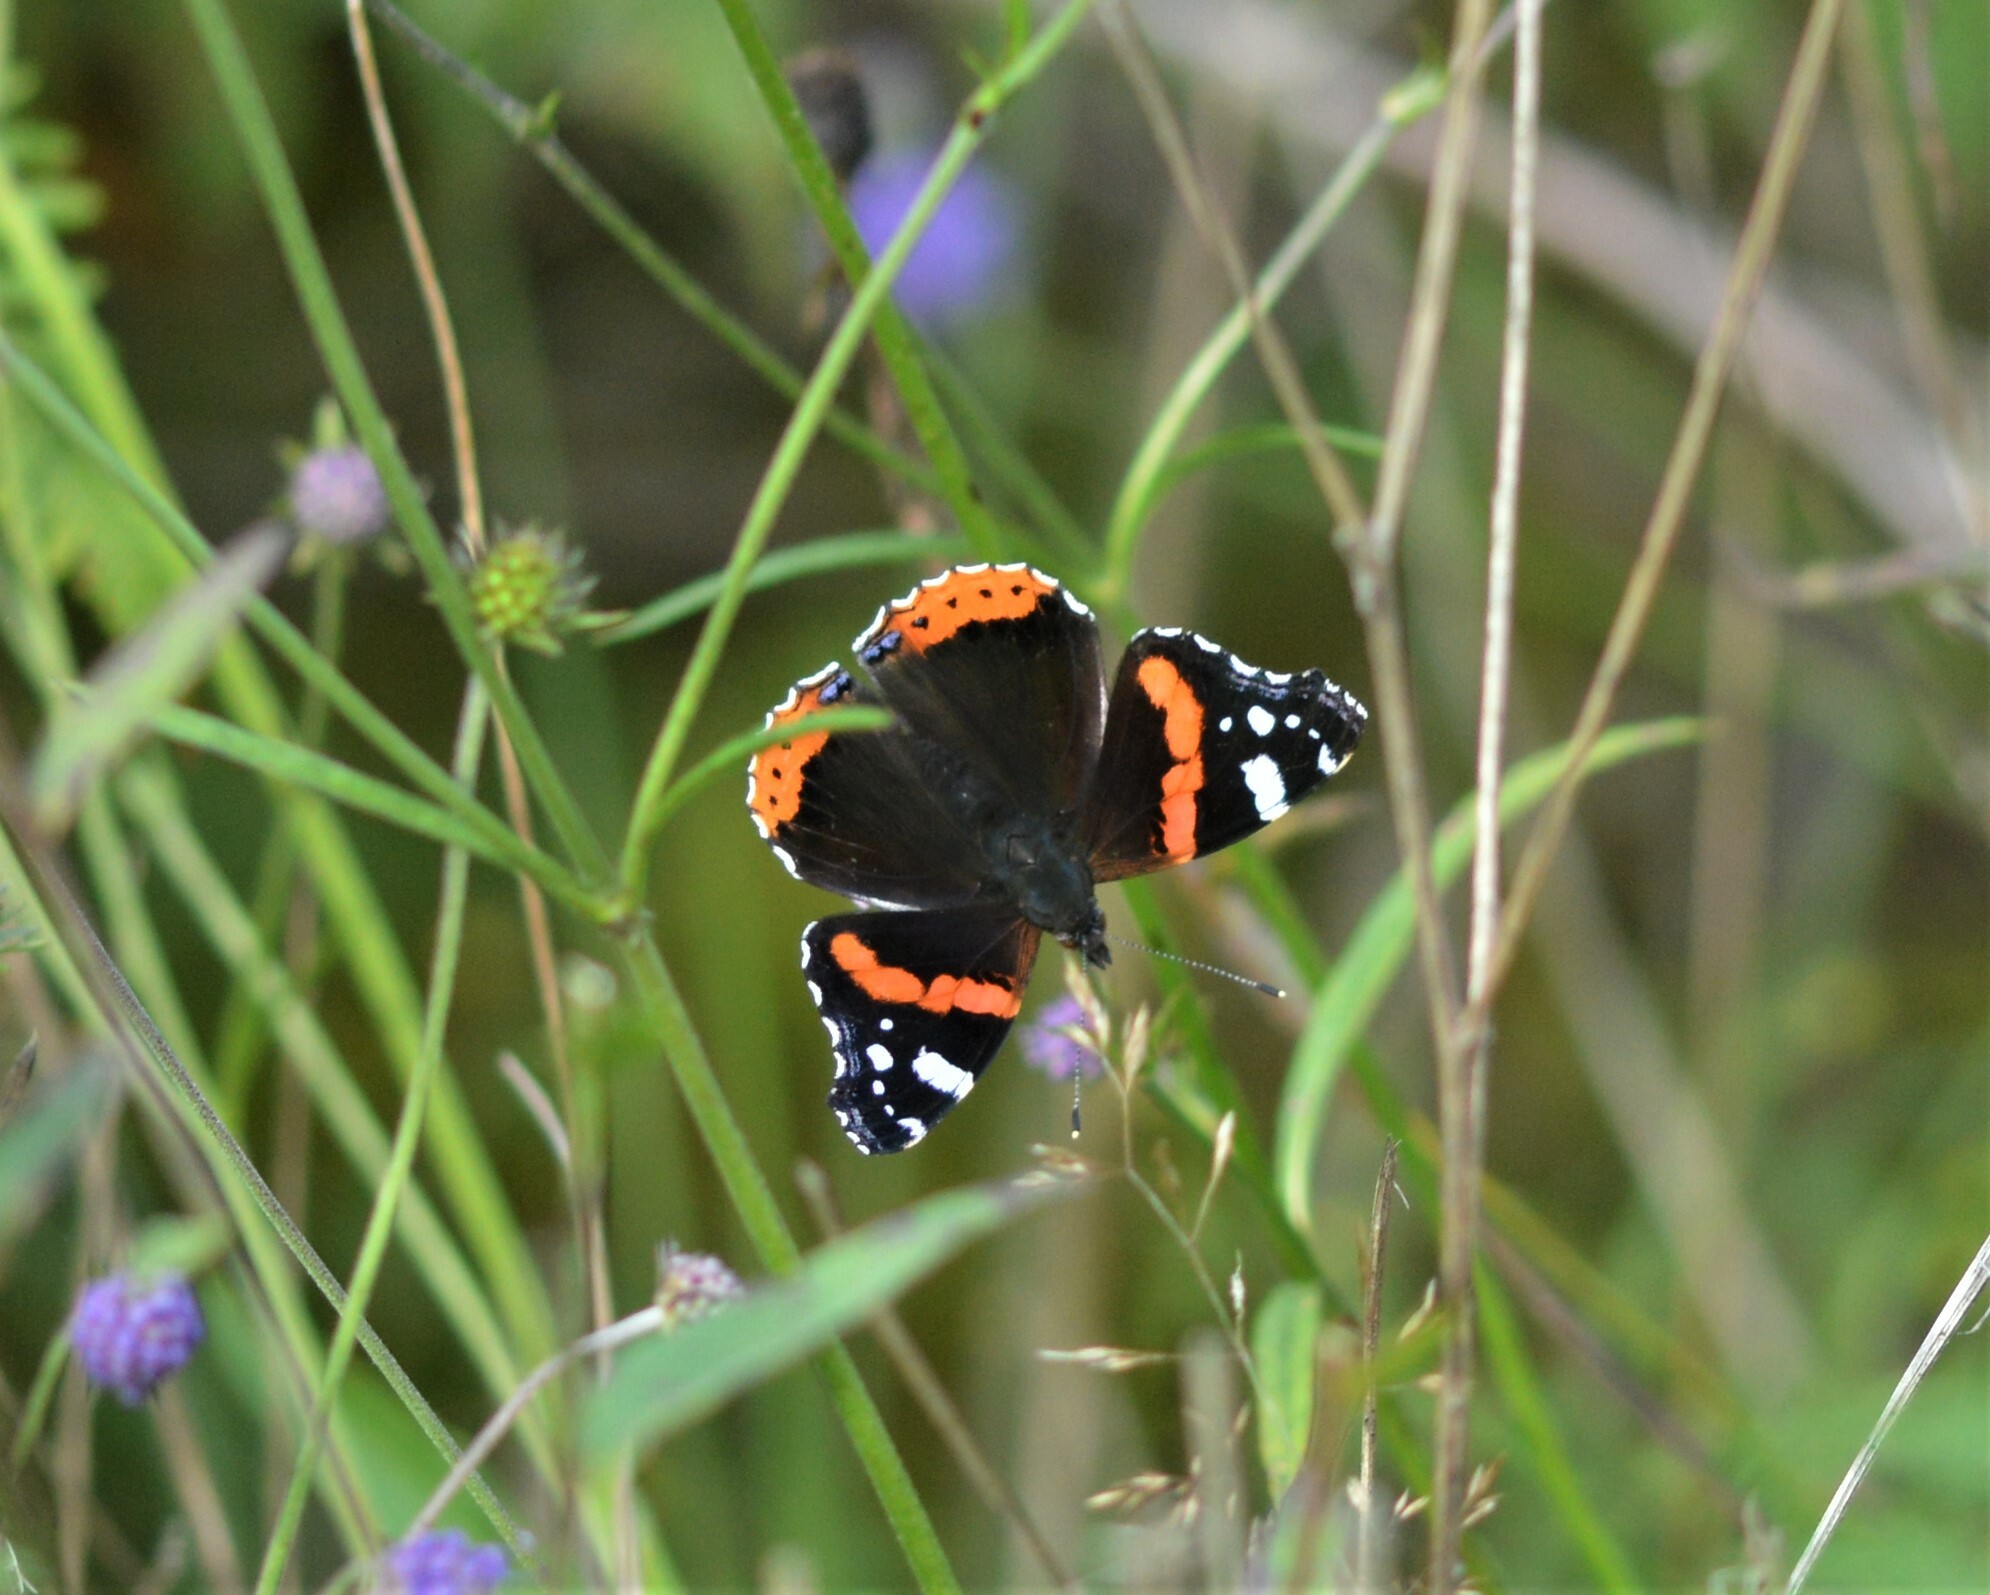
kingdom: Animalia
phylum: Arthropoda
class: Insecta
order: Lepidoptera
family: Nymphalidae
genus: Vanessa
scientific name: Vanessa atalanta
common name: Red admiral
